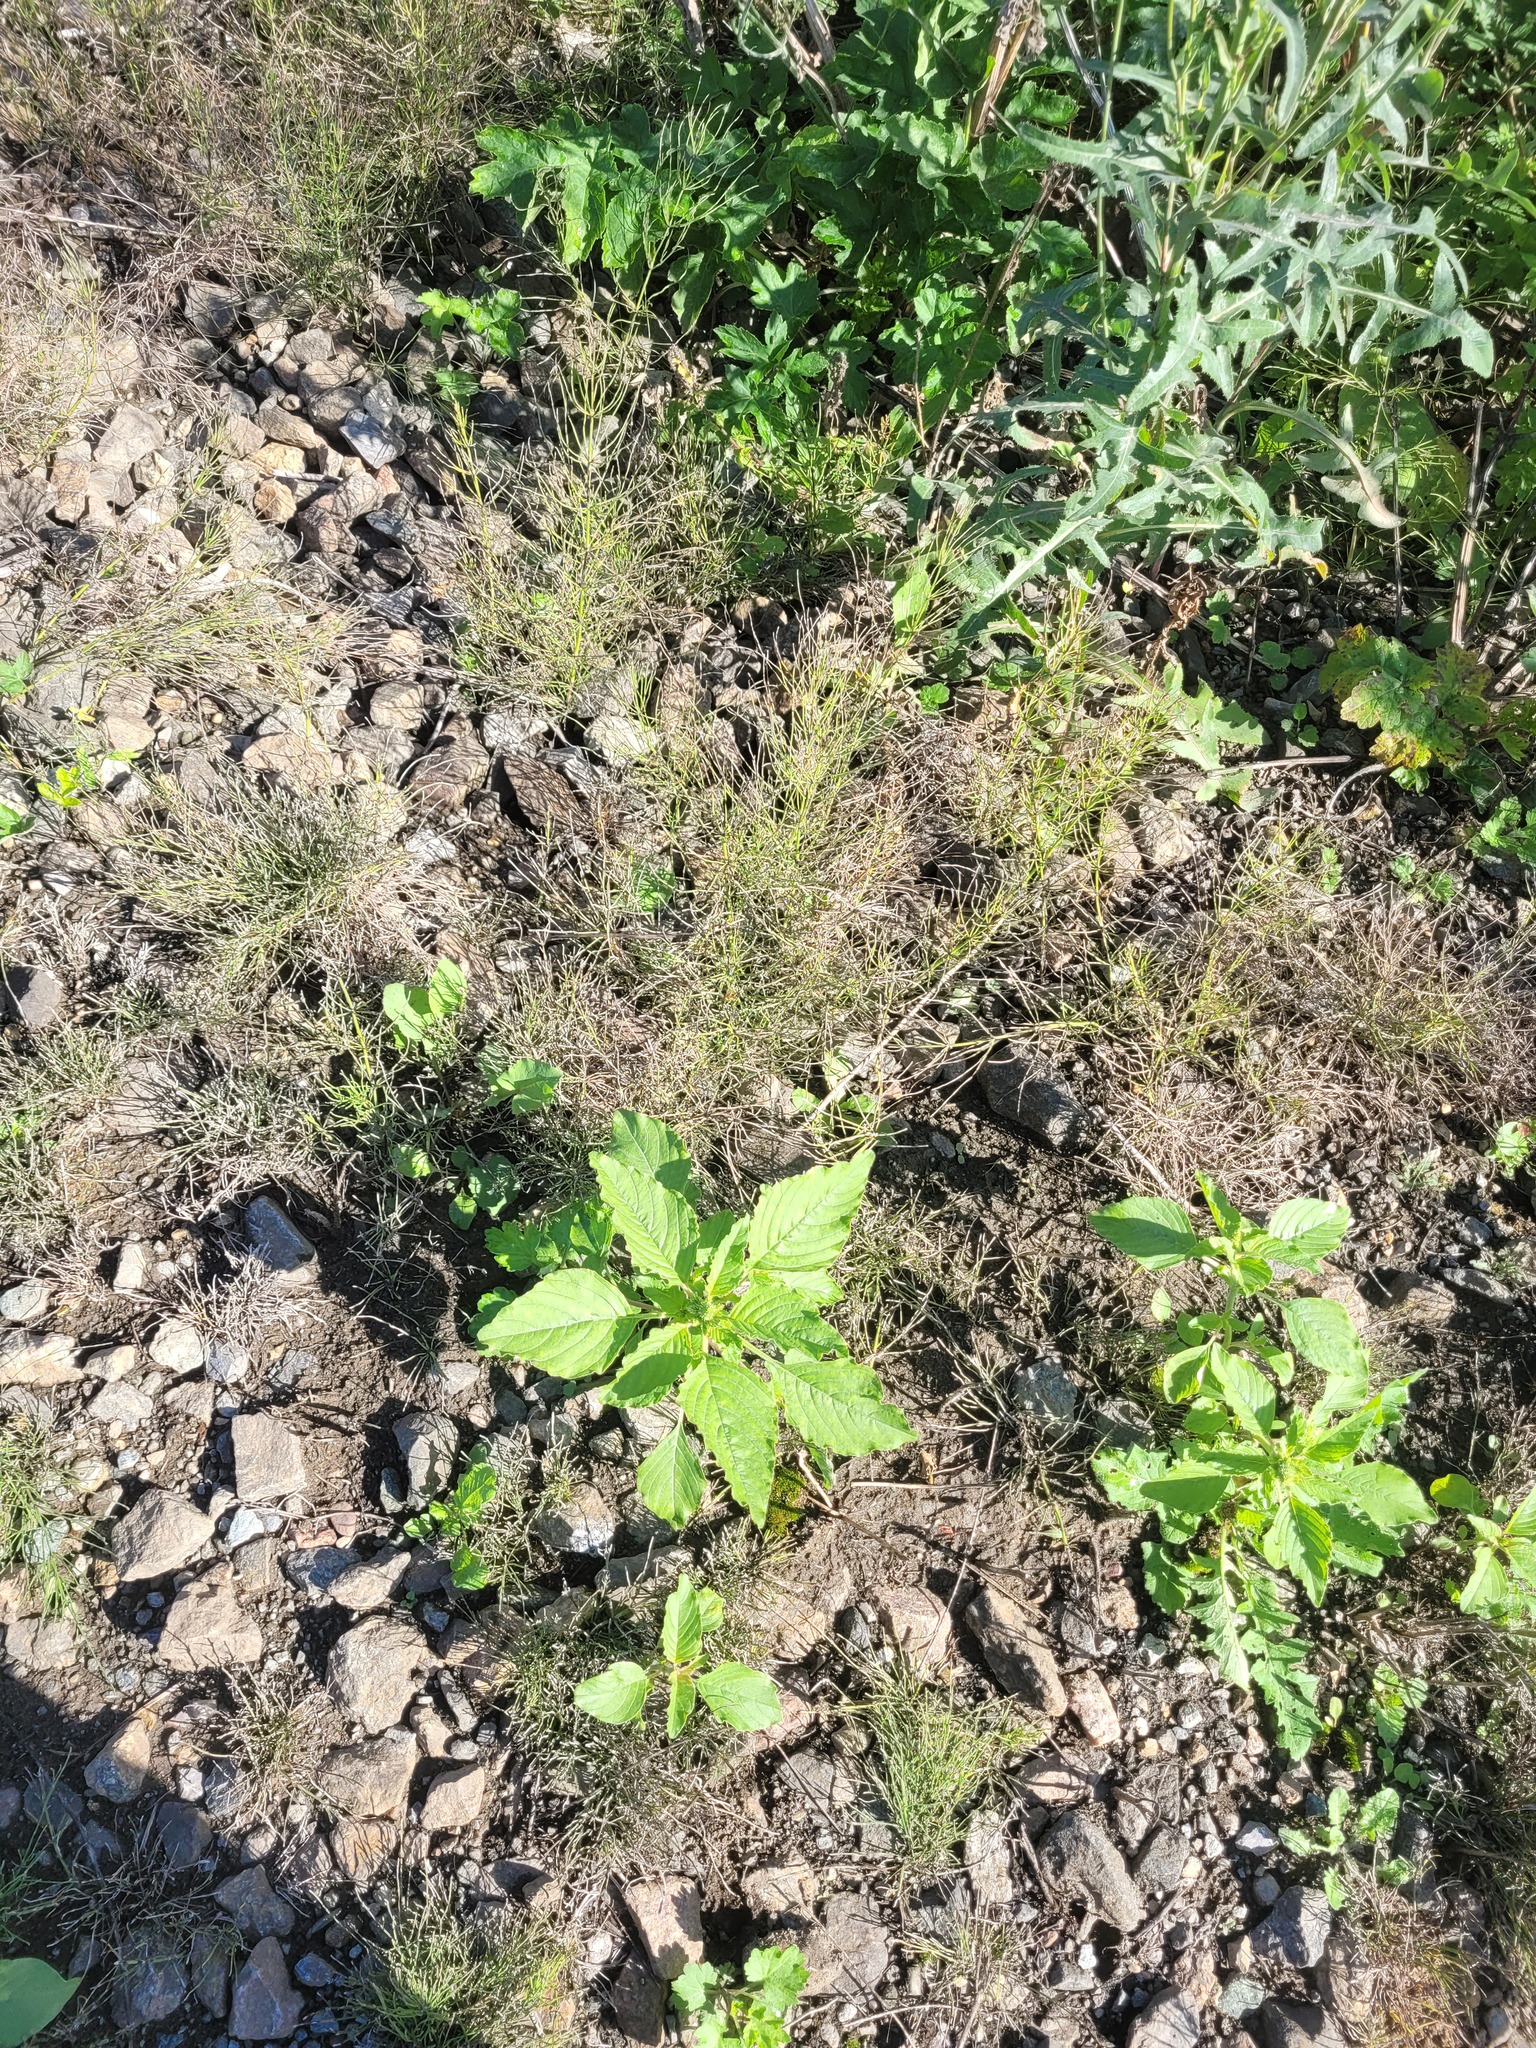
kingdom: Plantae
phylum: Tracheophyta
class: Magnoliopsida
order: Caryophyllales
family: Amaranthaceae
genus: Amaranthus
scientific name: Amaranthus retroflexus
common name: Redroot amaranth
